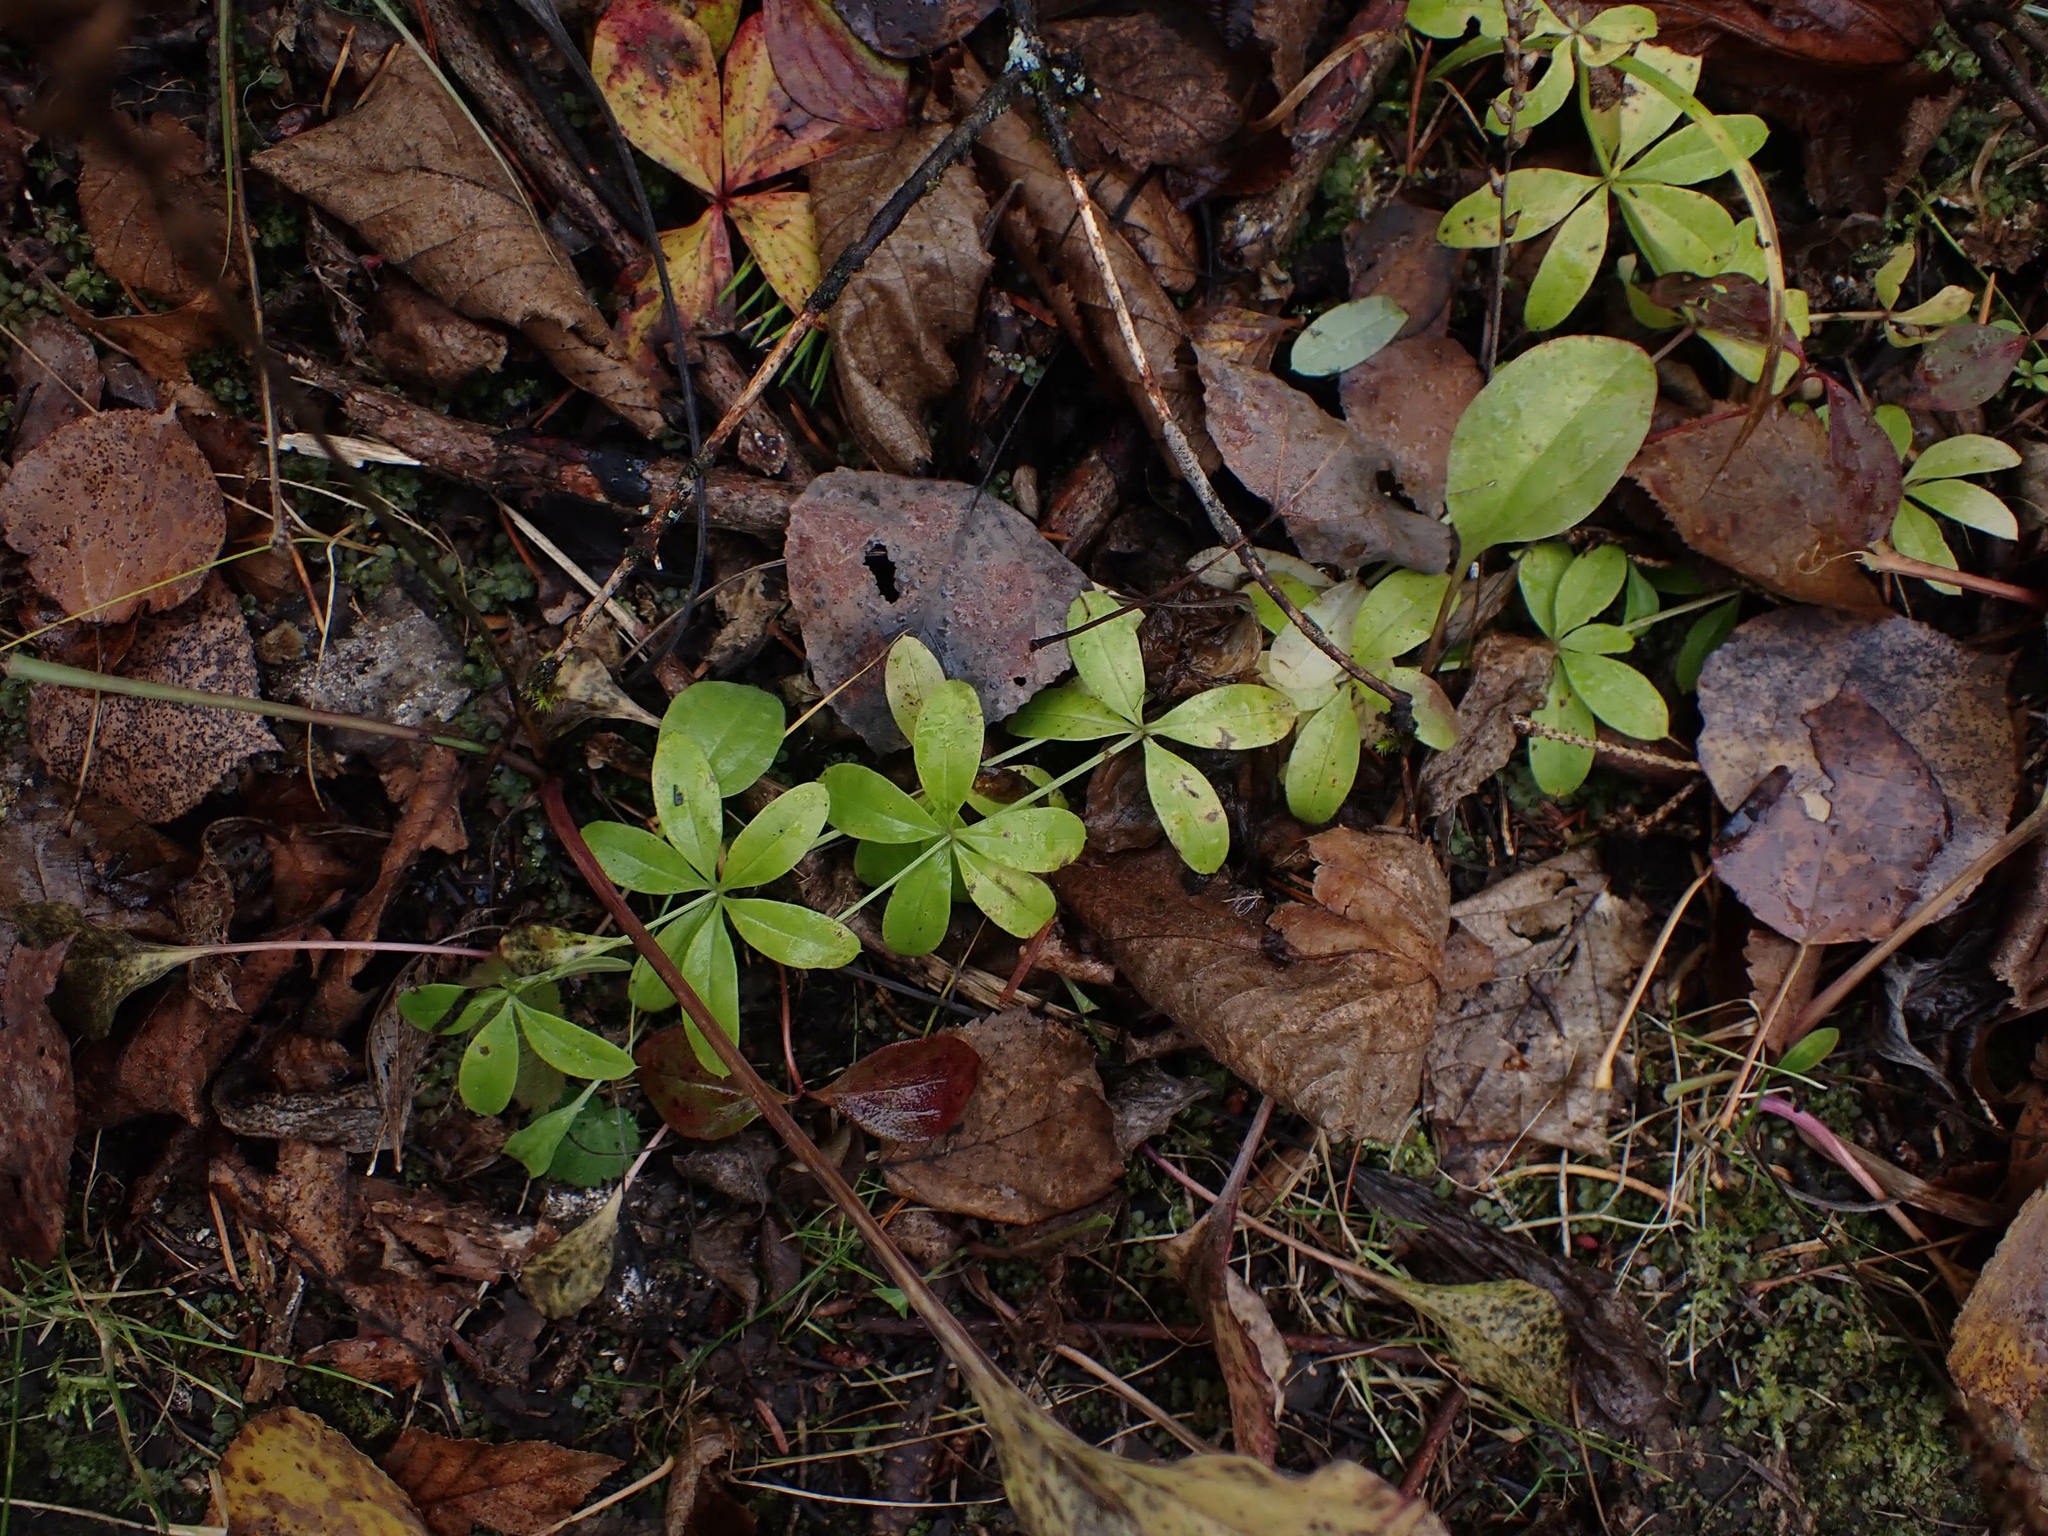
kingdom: Plantae
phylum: Tracheophyta
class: Magnoliopsida
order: Gentianales
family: Rubiaceae
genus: Galium
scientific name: Galium triflorum
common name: Fragrant bedstraw
